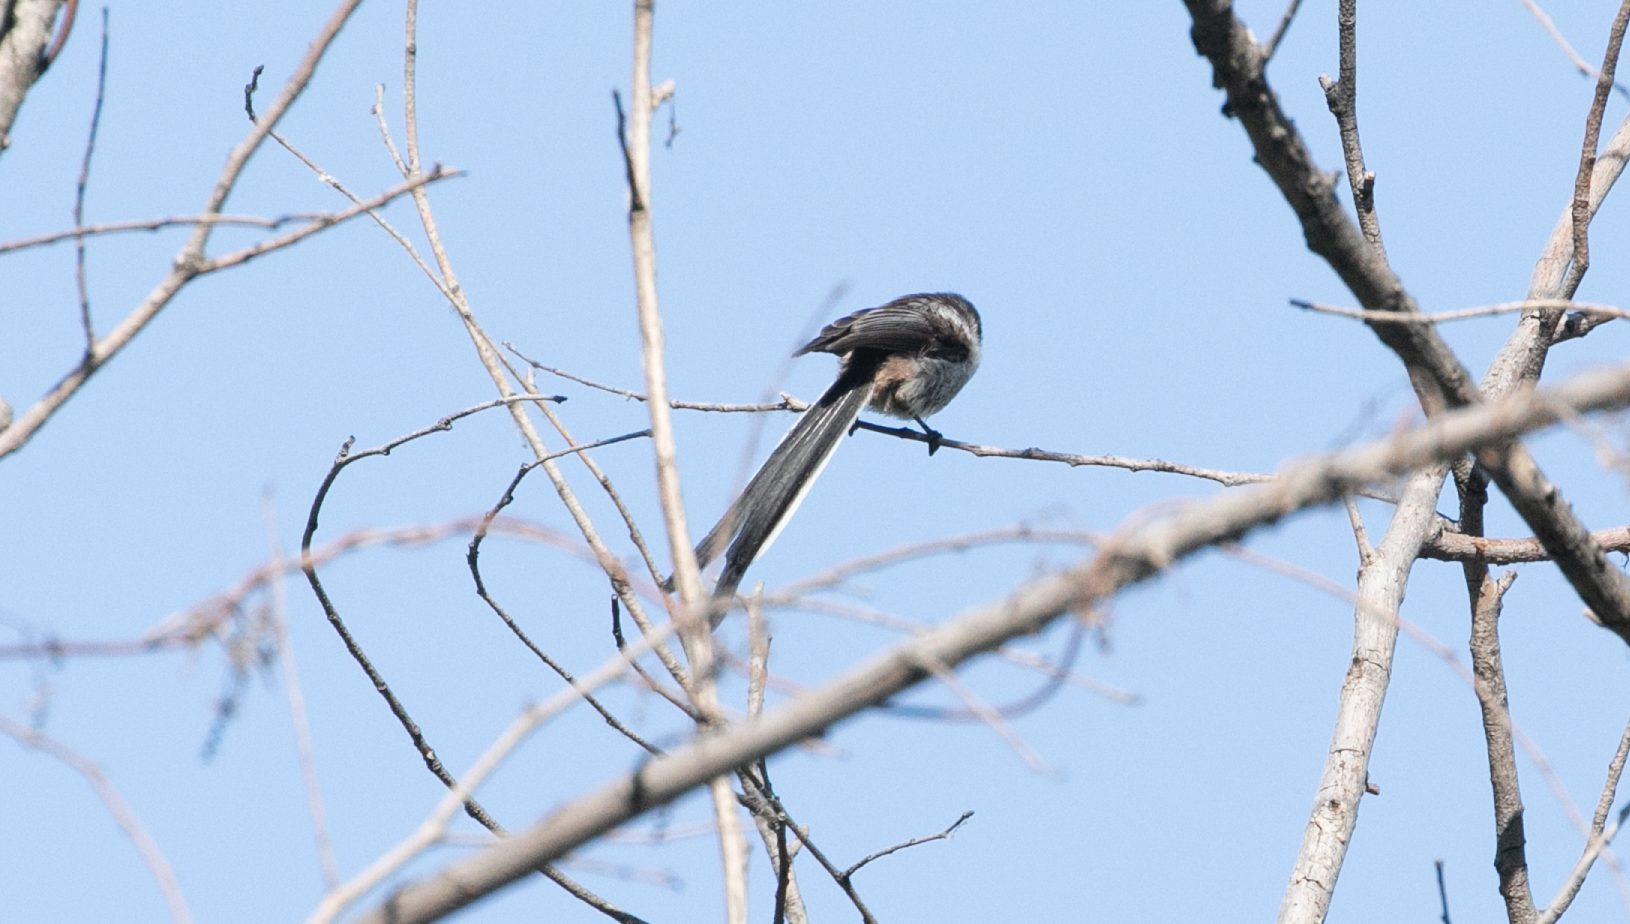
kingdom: Animalia
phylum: Chordata
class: Aves
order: Passeriformes
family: Aegithalidae
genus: Aegithalos
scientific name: Aegithalos caudatus
